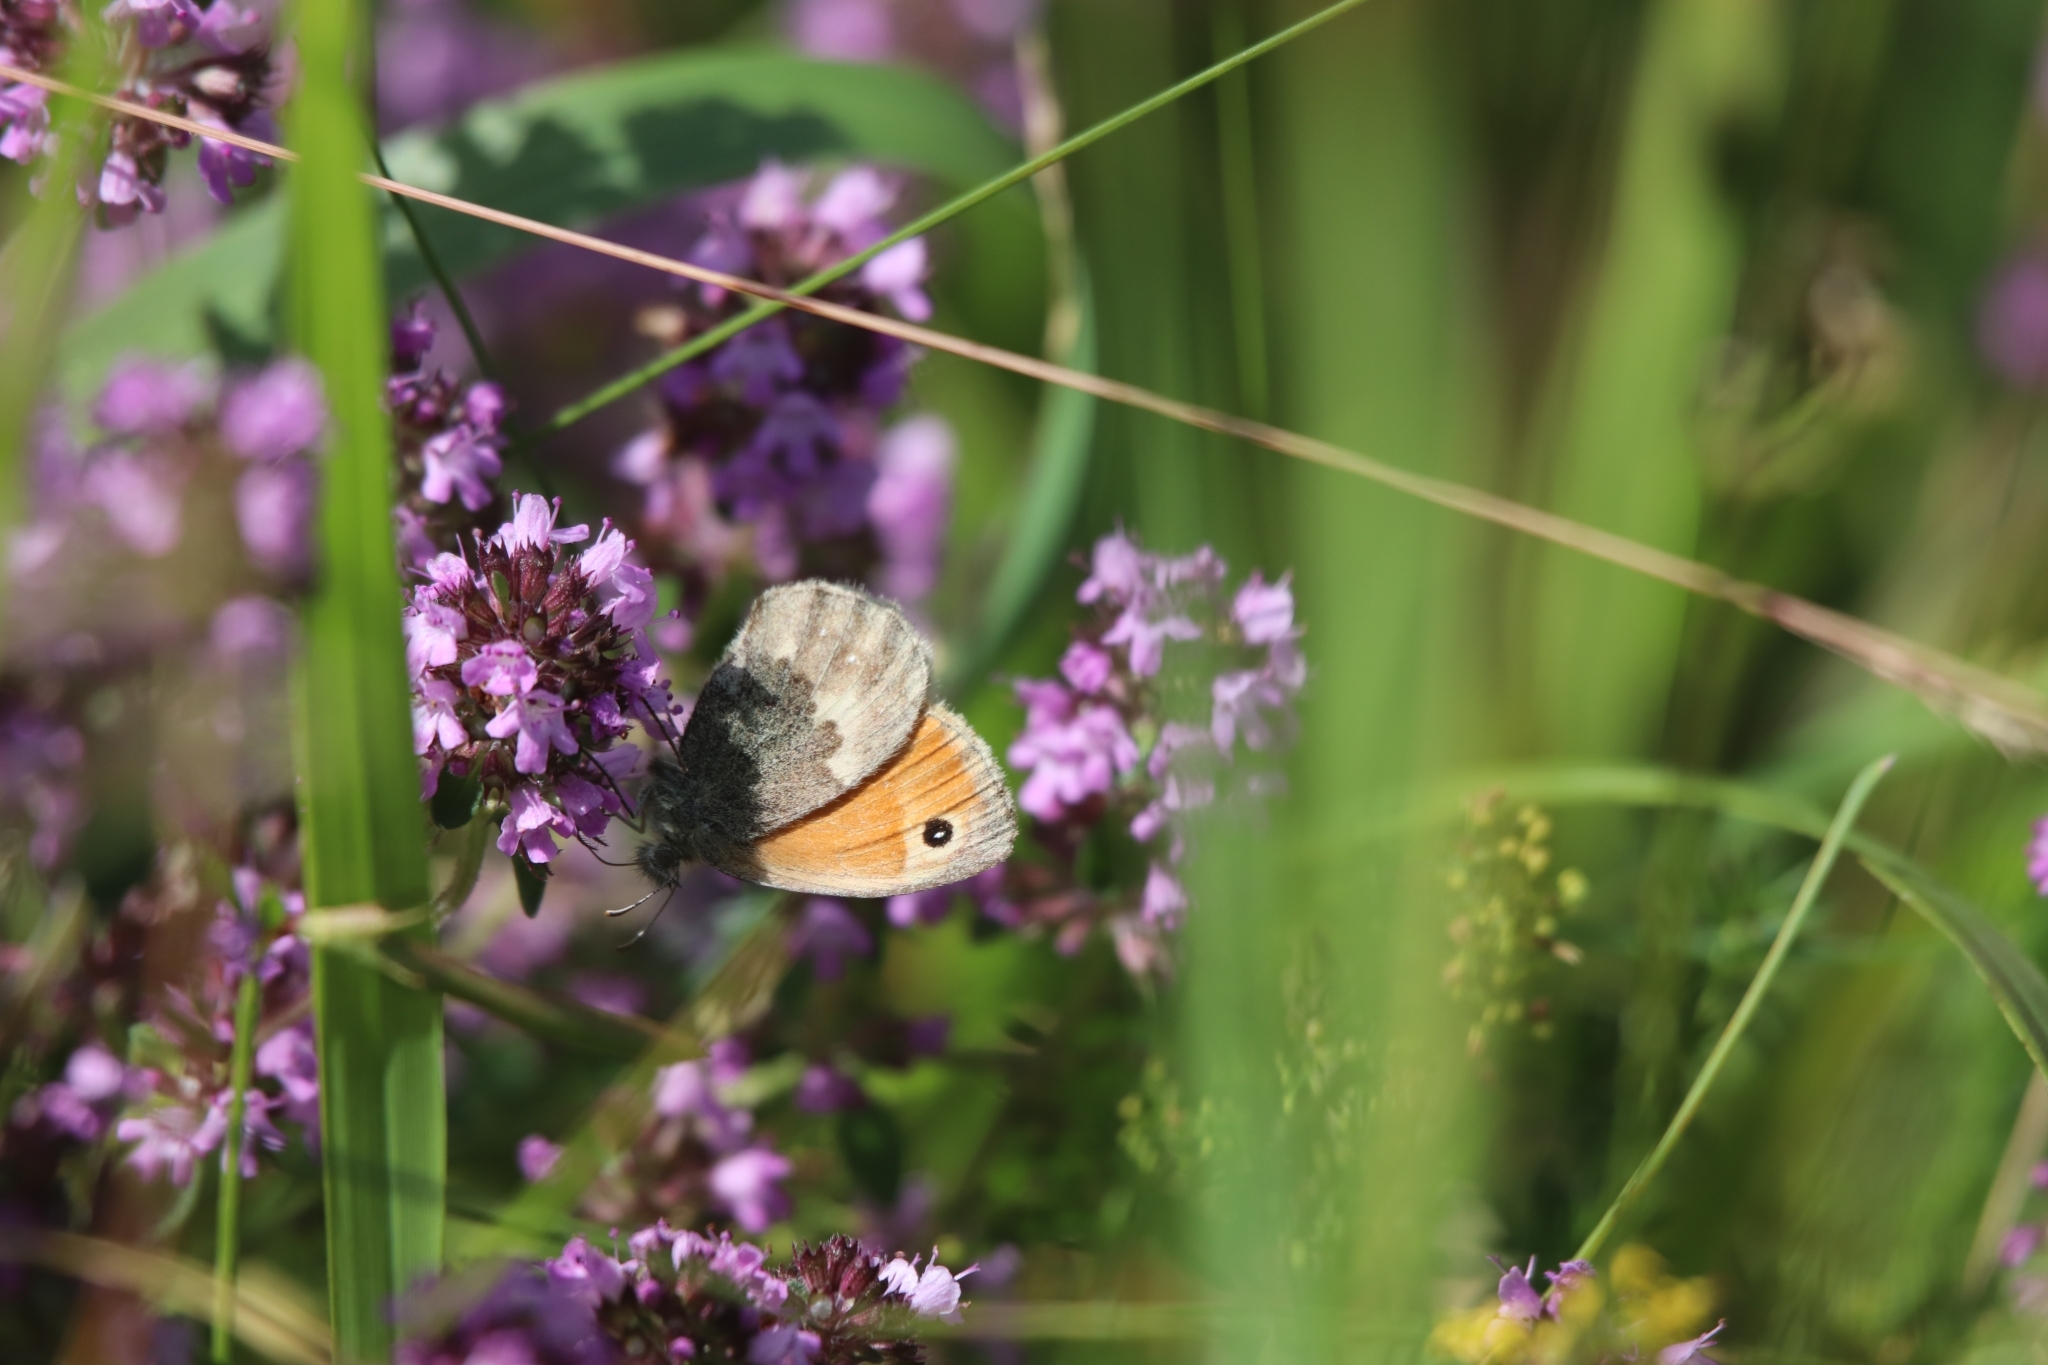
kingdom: Animalia
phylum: Arthropoda
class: Insecta
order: Lepidoptera
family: Nymphalidae
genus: Coenonympha
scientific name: Coenonympha pamphilus
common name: Small heath
